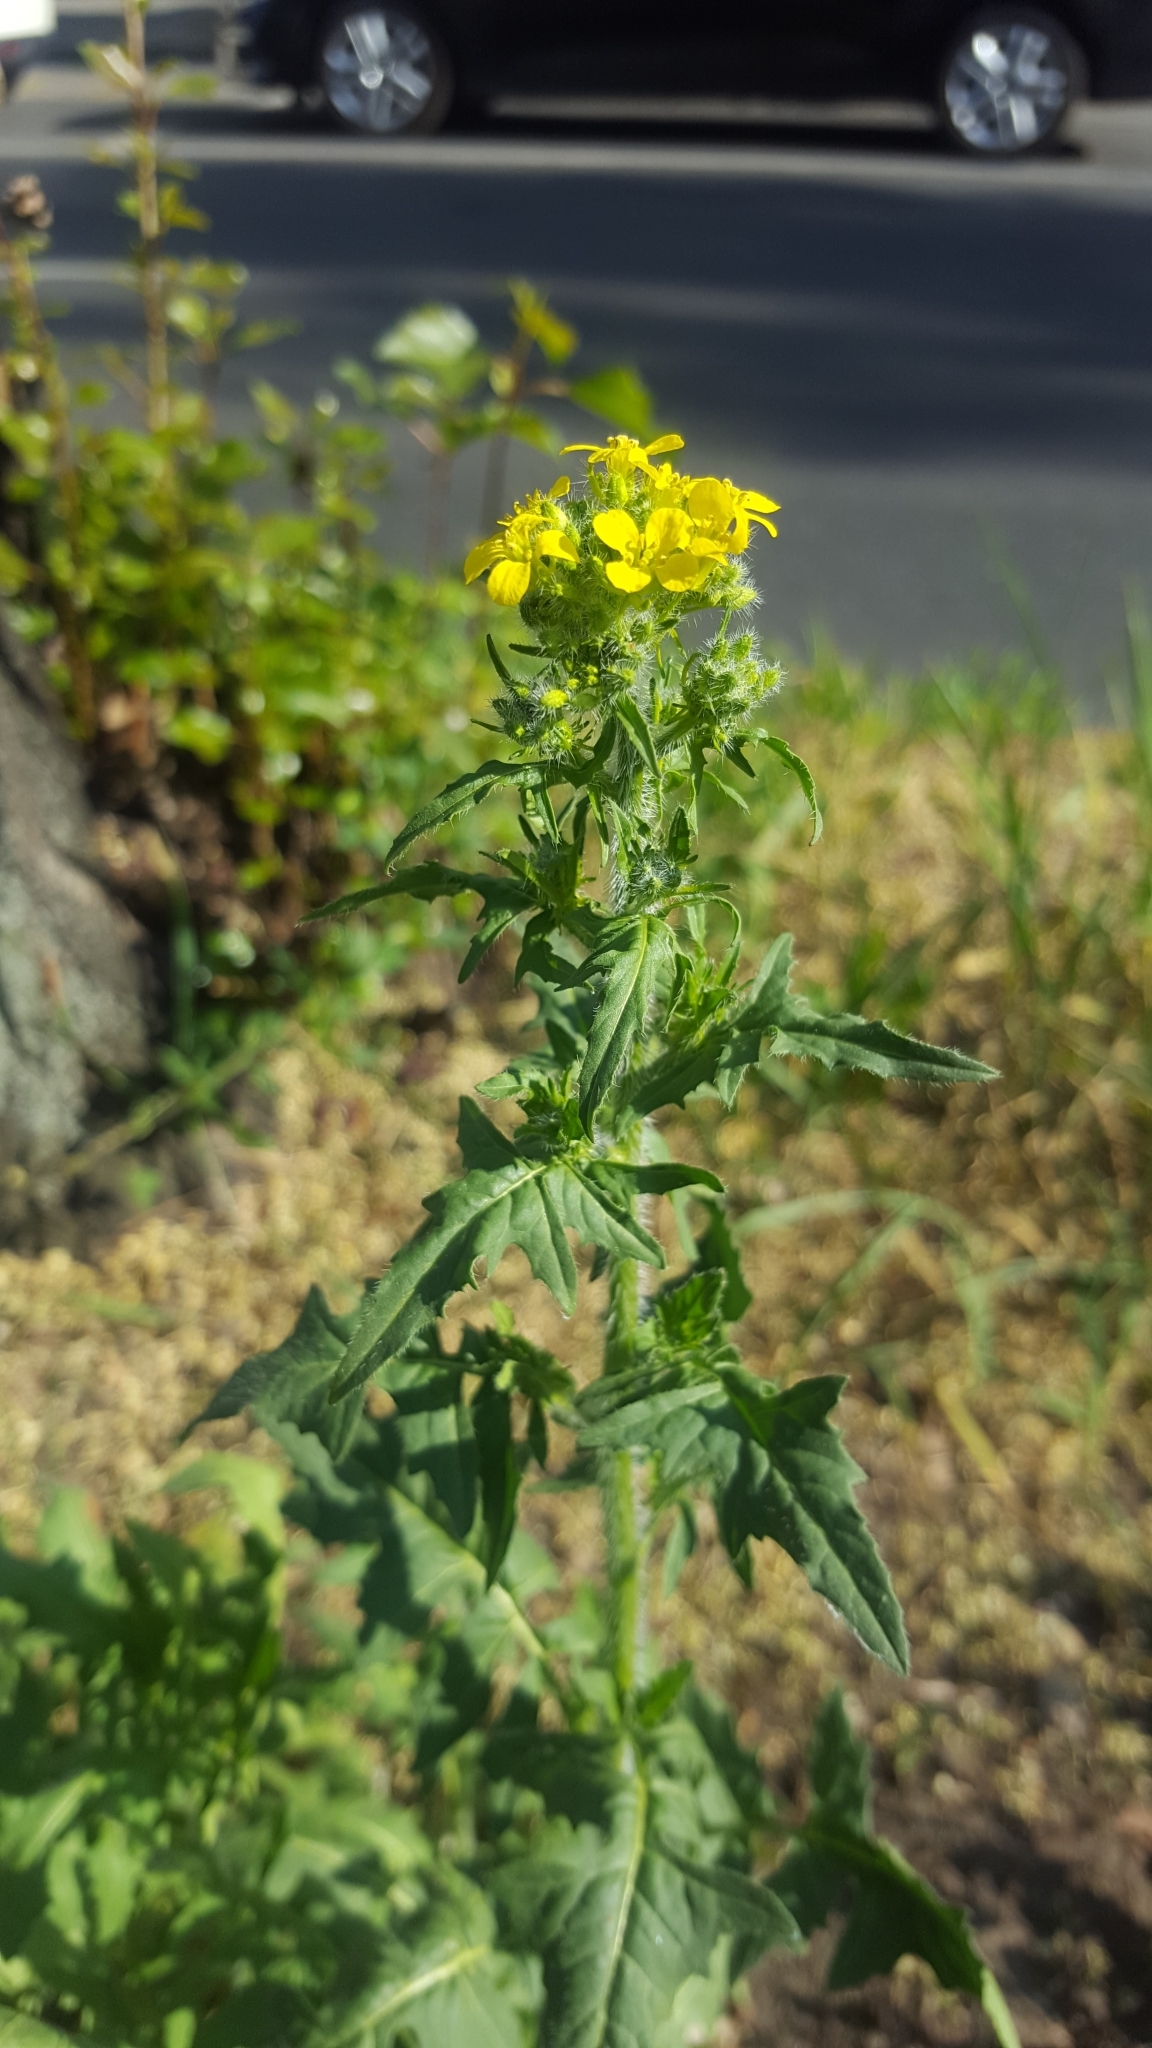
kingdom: Plantae
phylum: Tracheophyta
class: Magnoliopsida
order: Brassicales
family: Brassicaceae
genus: Sisymbrium
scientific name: Sisymbrium loeselii
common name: False london-rocket
